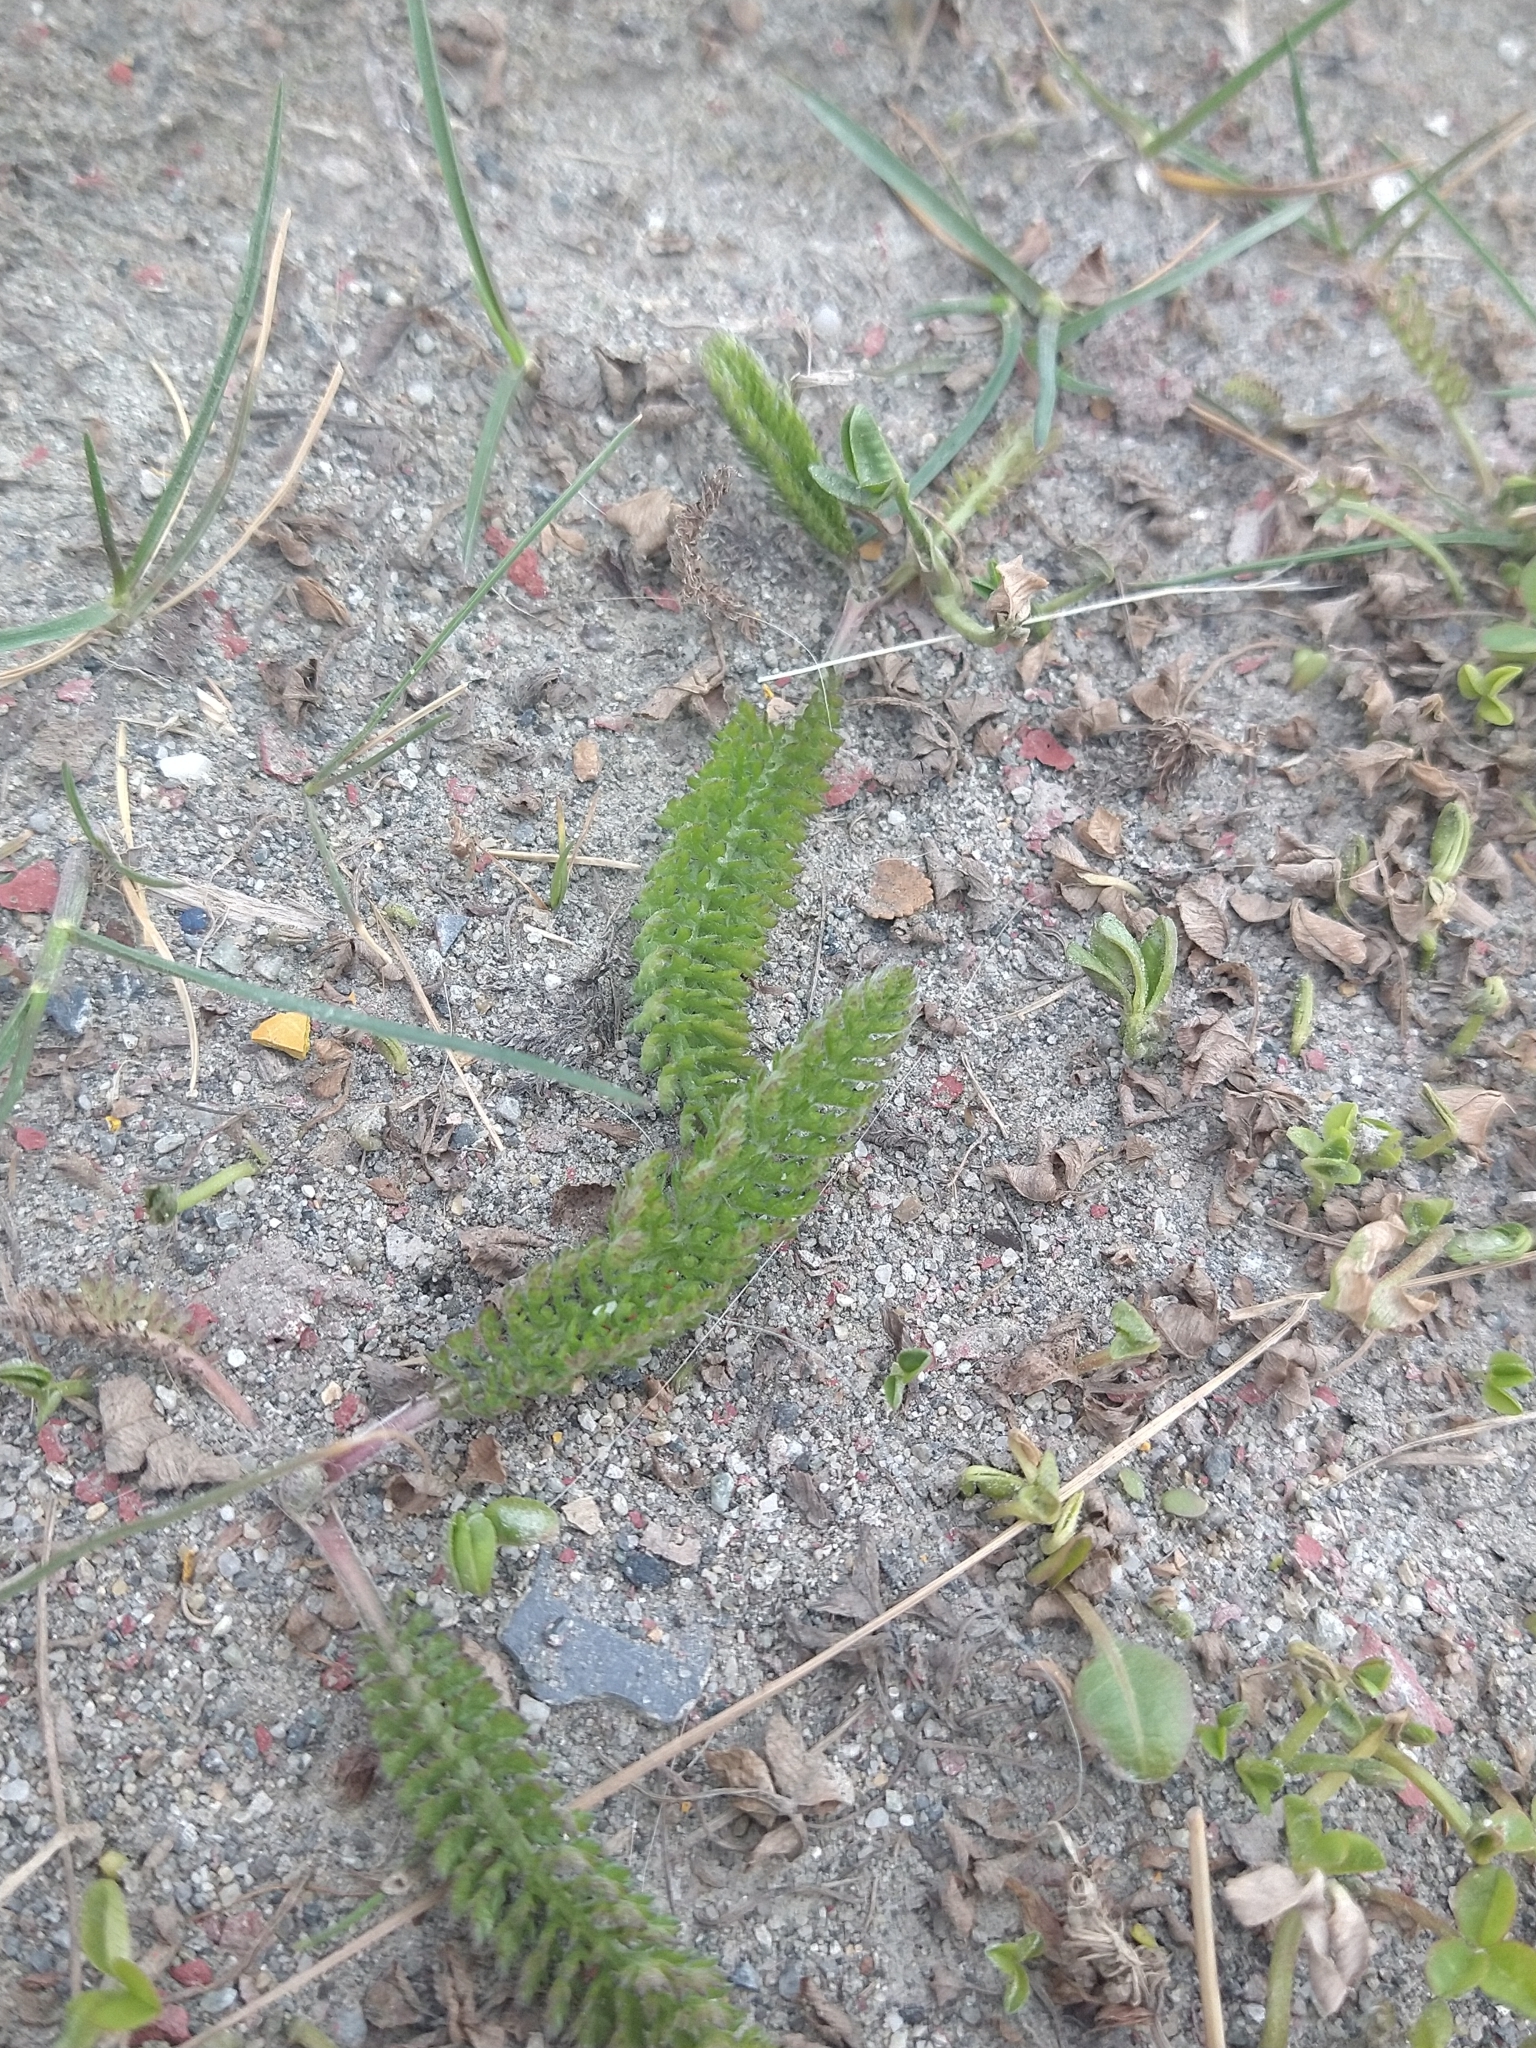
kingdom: Plantae
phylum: Tracheophyta
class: Magnoliopsida
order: Asterales
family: Asteraceae
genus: Achillea
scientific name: Achillea millefolium
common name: Yarrow
